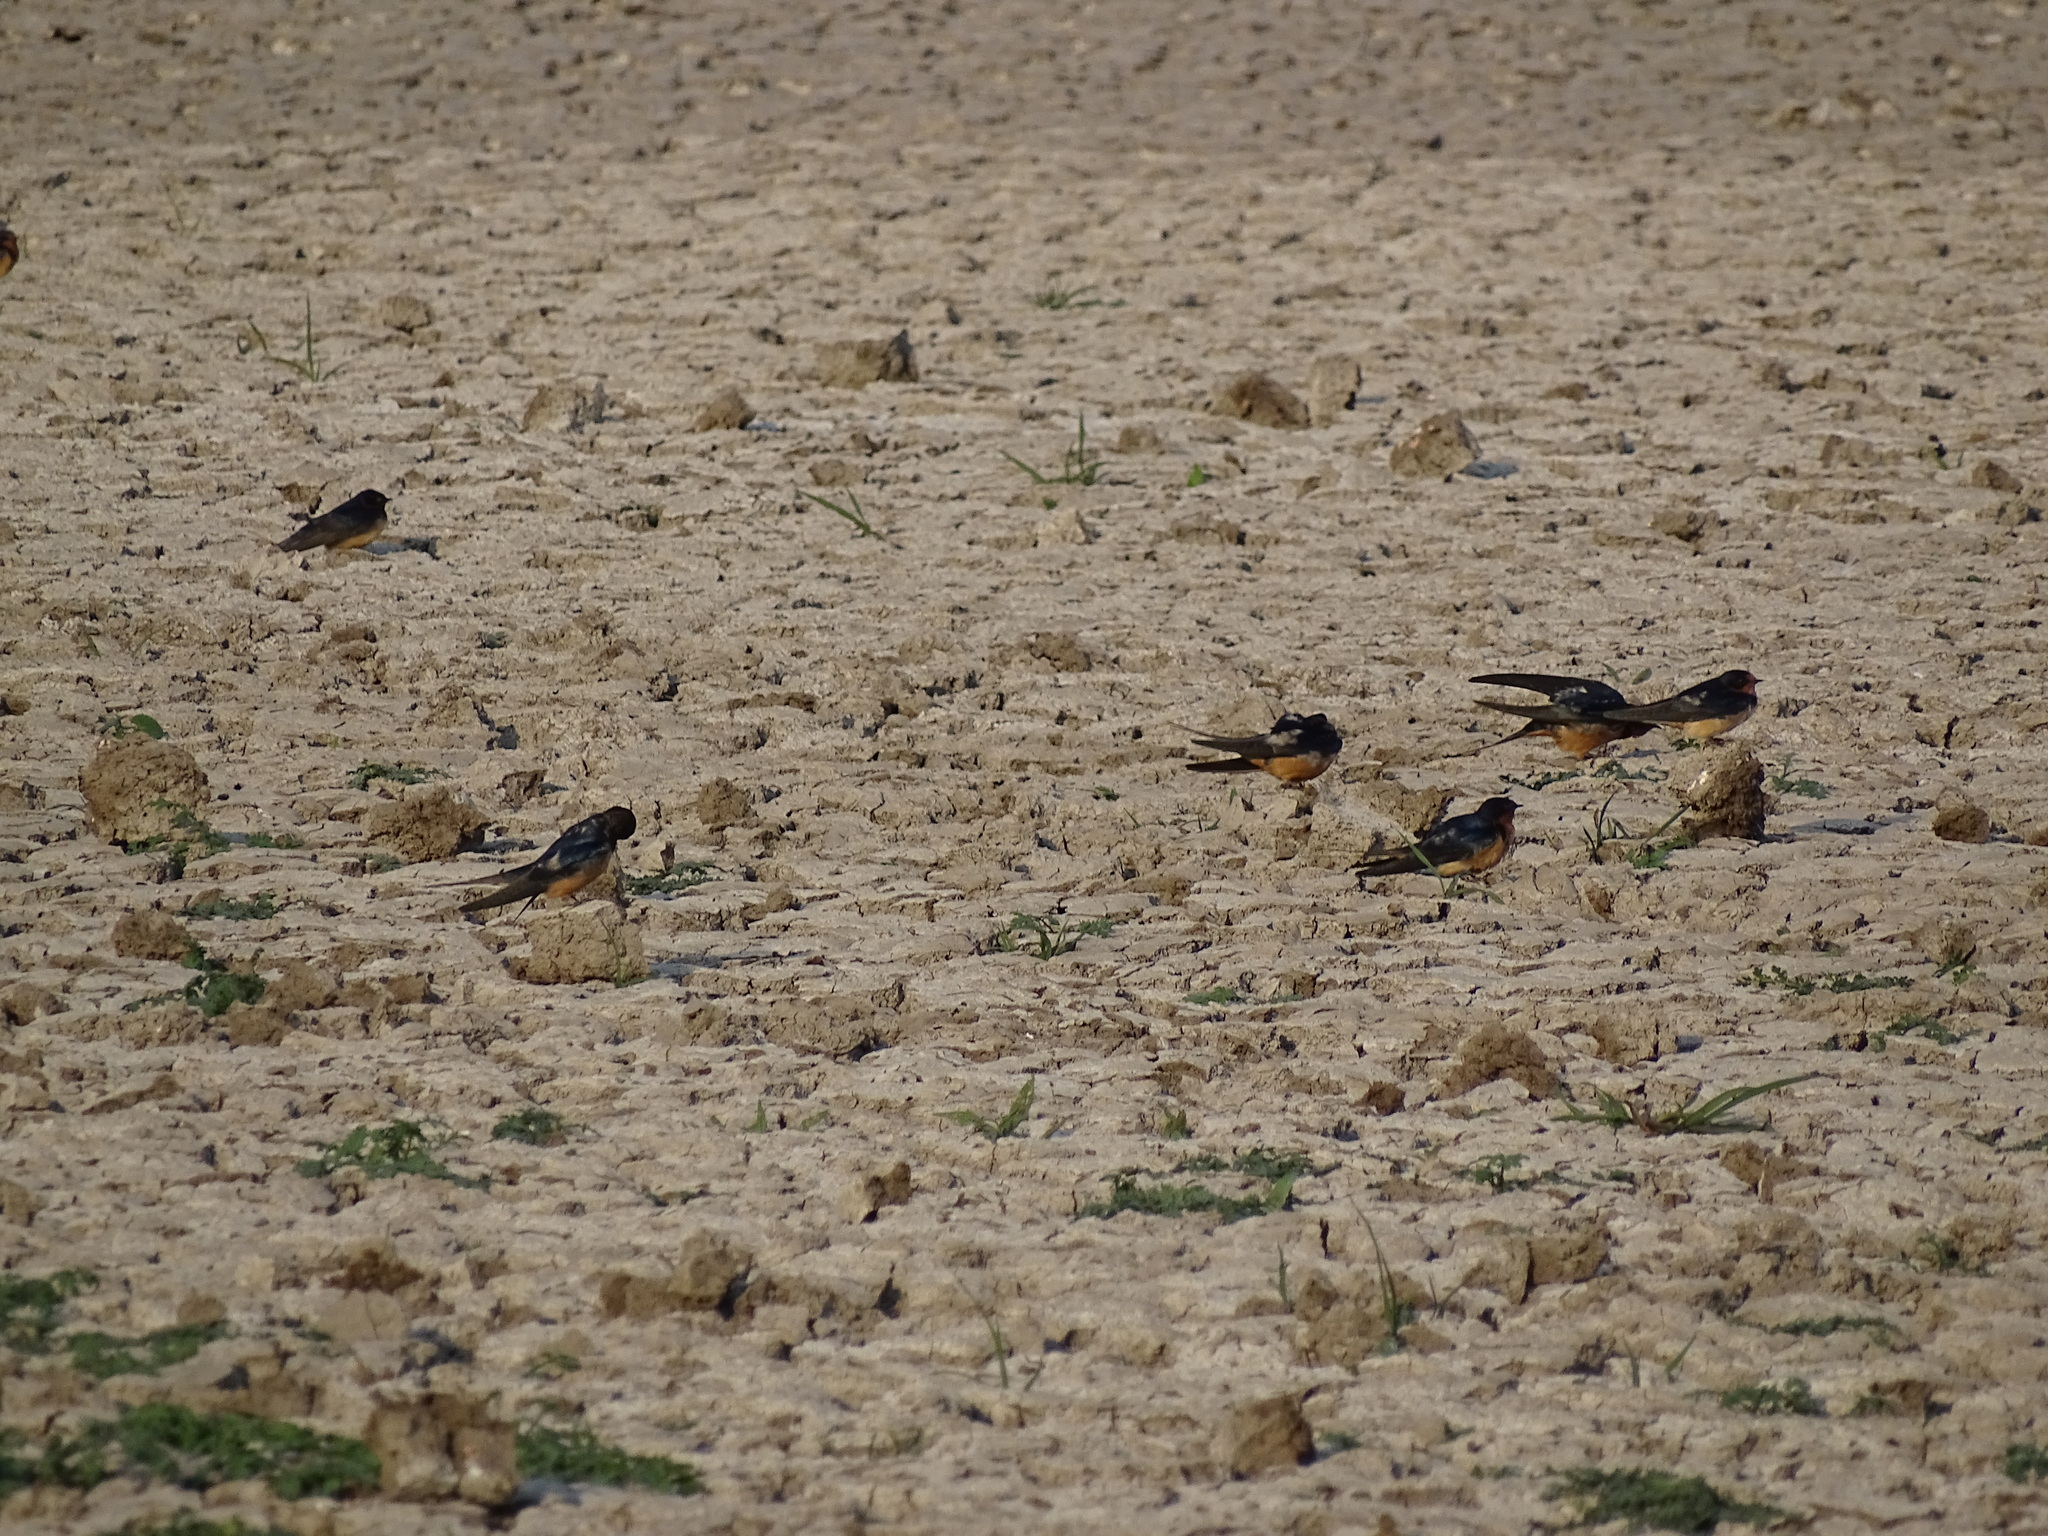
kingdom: Animalia
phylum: Chordata
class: Aves
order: Passeriformes
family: Hirundinidae
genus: Hirundo
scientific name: Hirundo rustica
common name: Barn swallow
